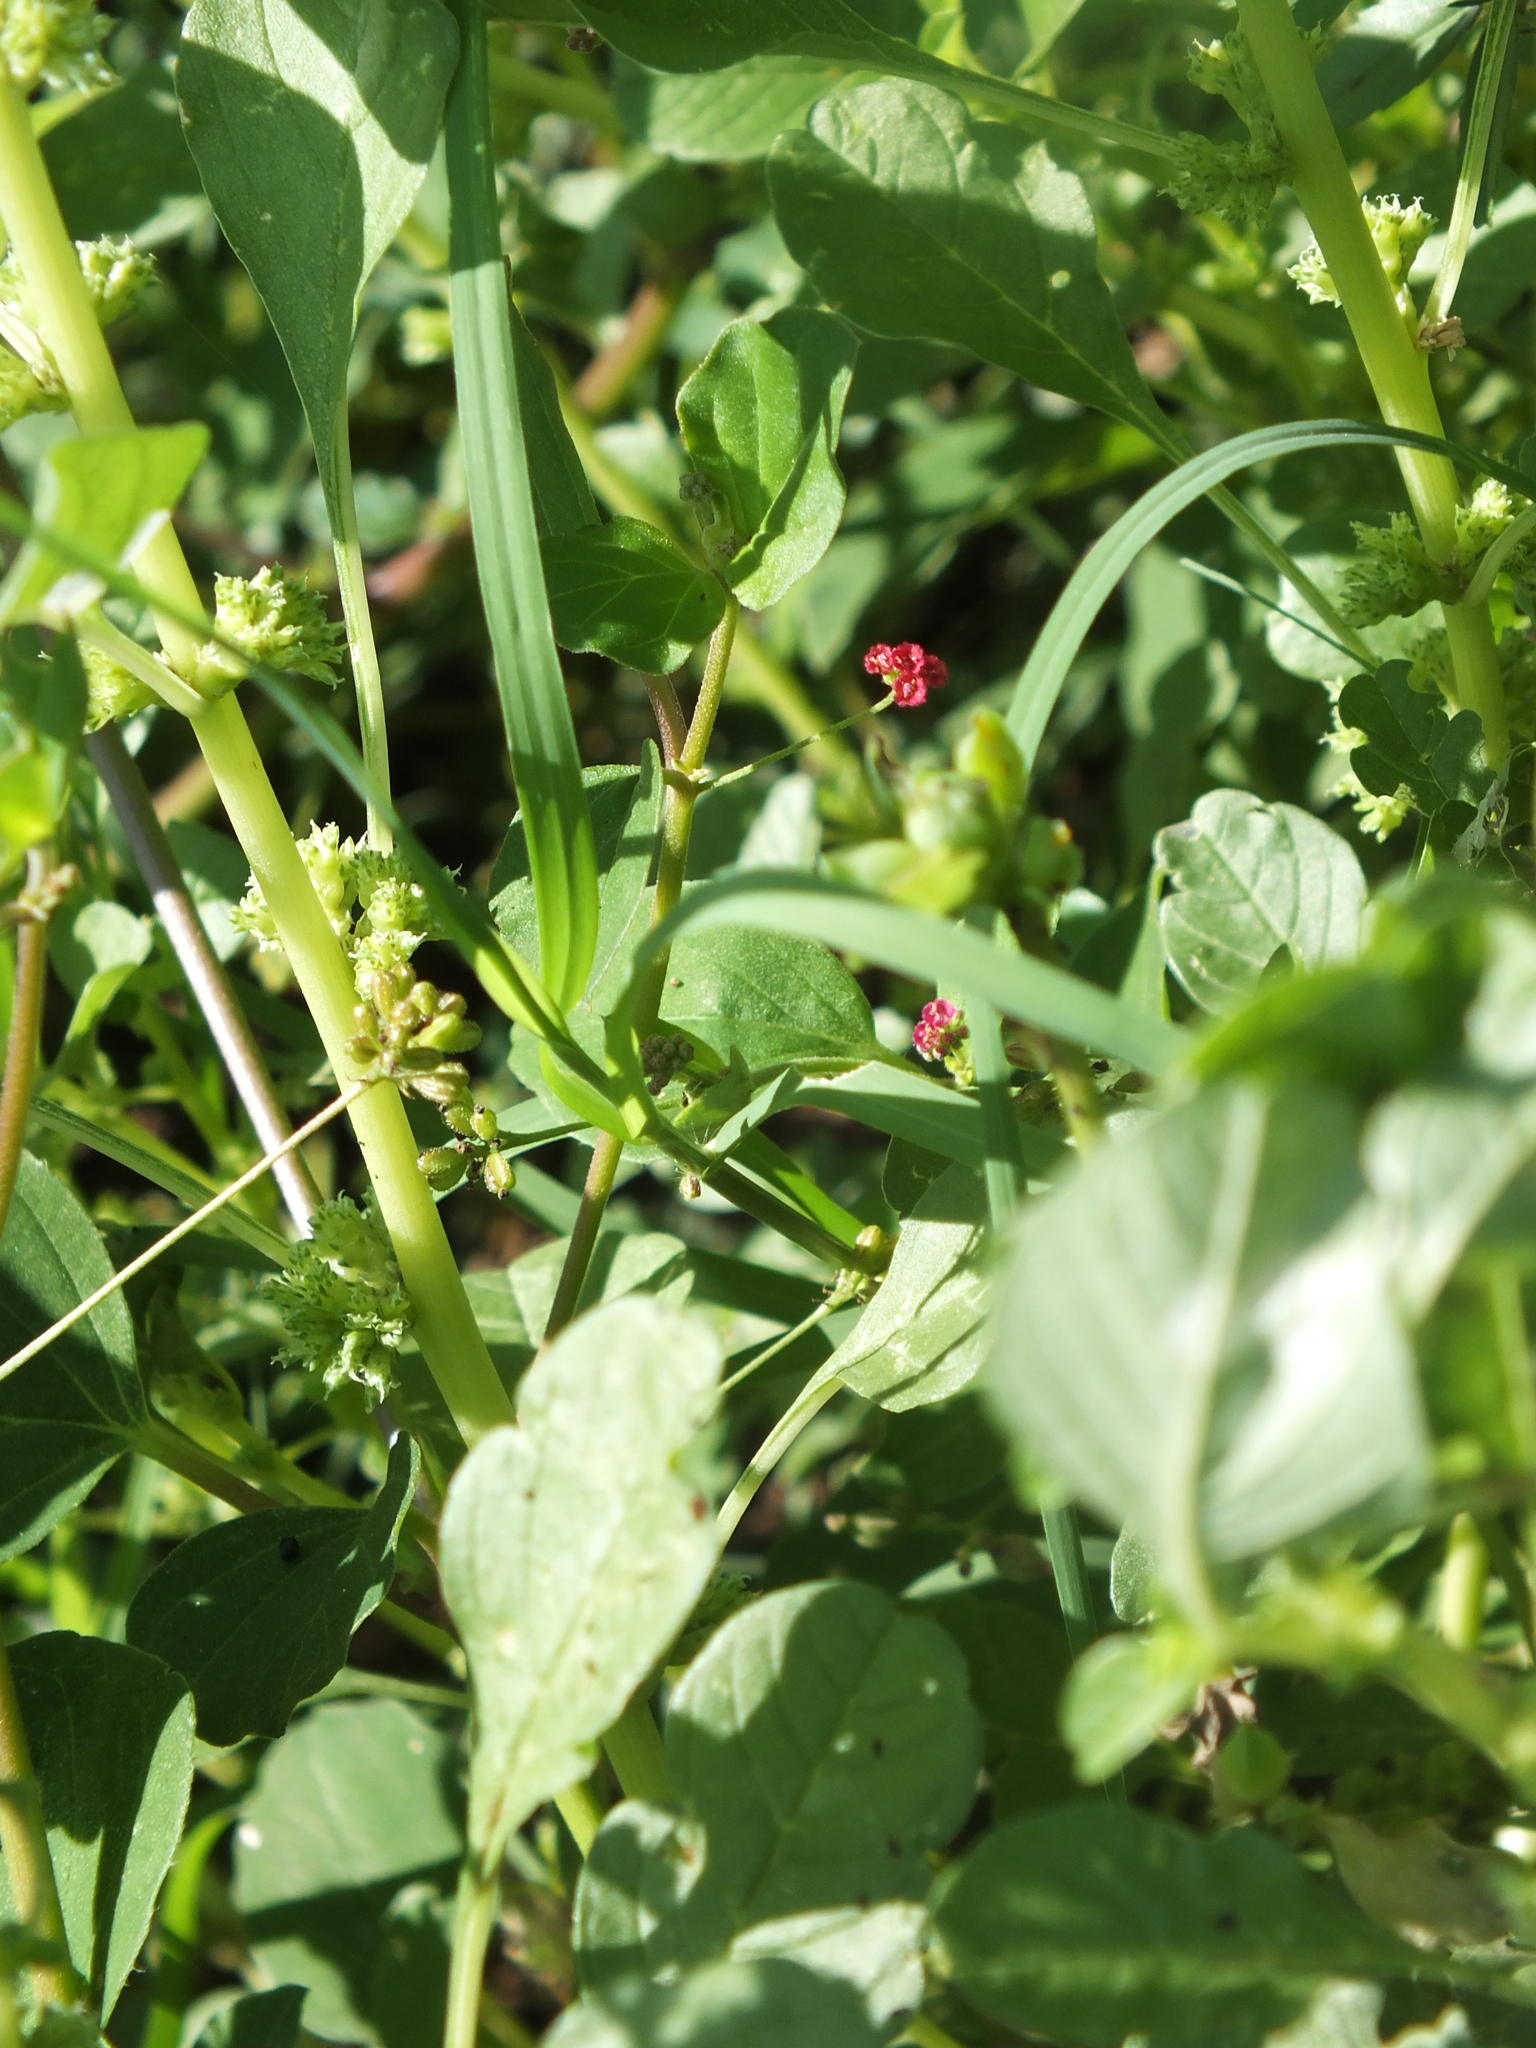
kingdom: Plantae
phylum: Tracheophyta
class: Magnoliopsida
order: Caryophyllales
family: Nyctaginaceae
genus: Boerhavia
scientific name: Boerhavia coccinea
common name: Scarlet spiderling
